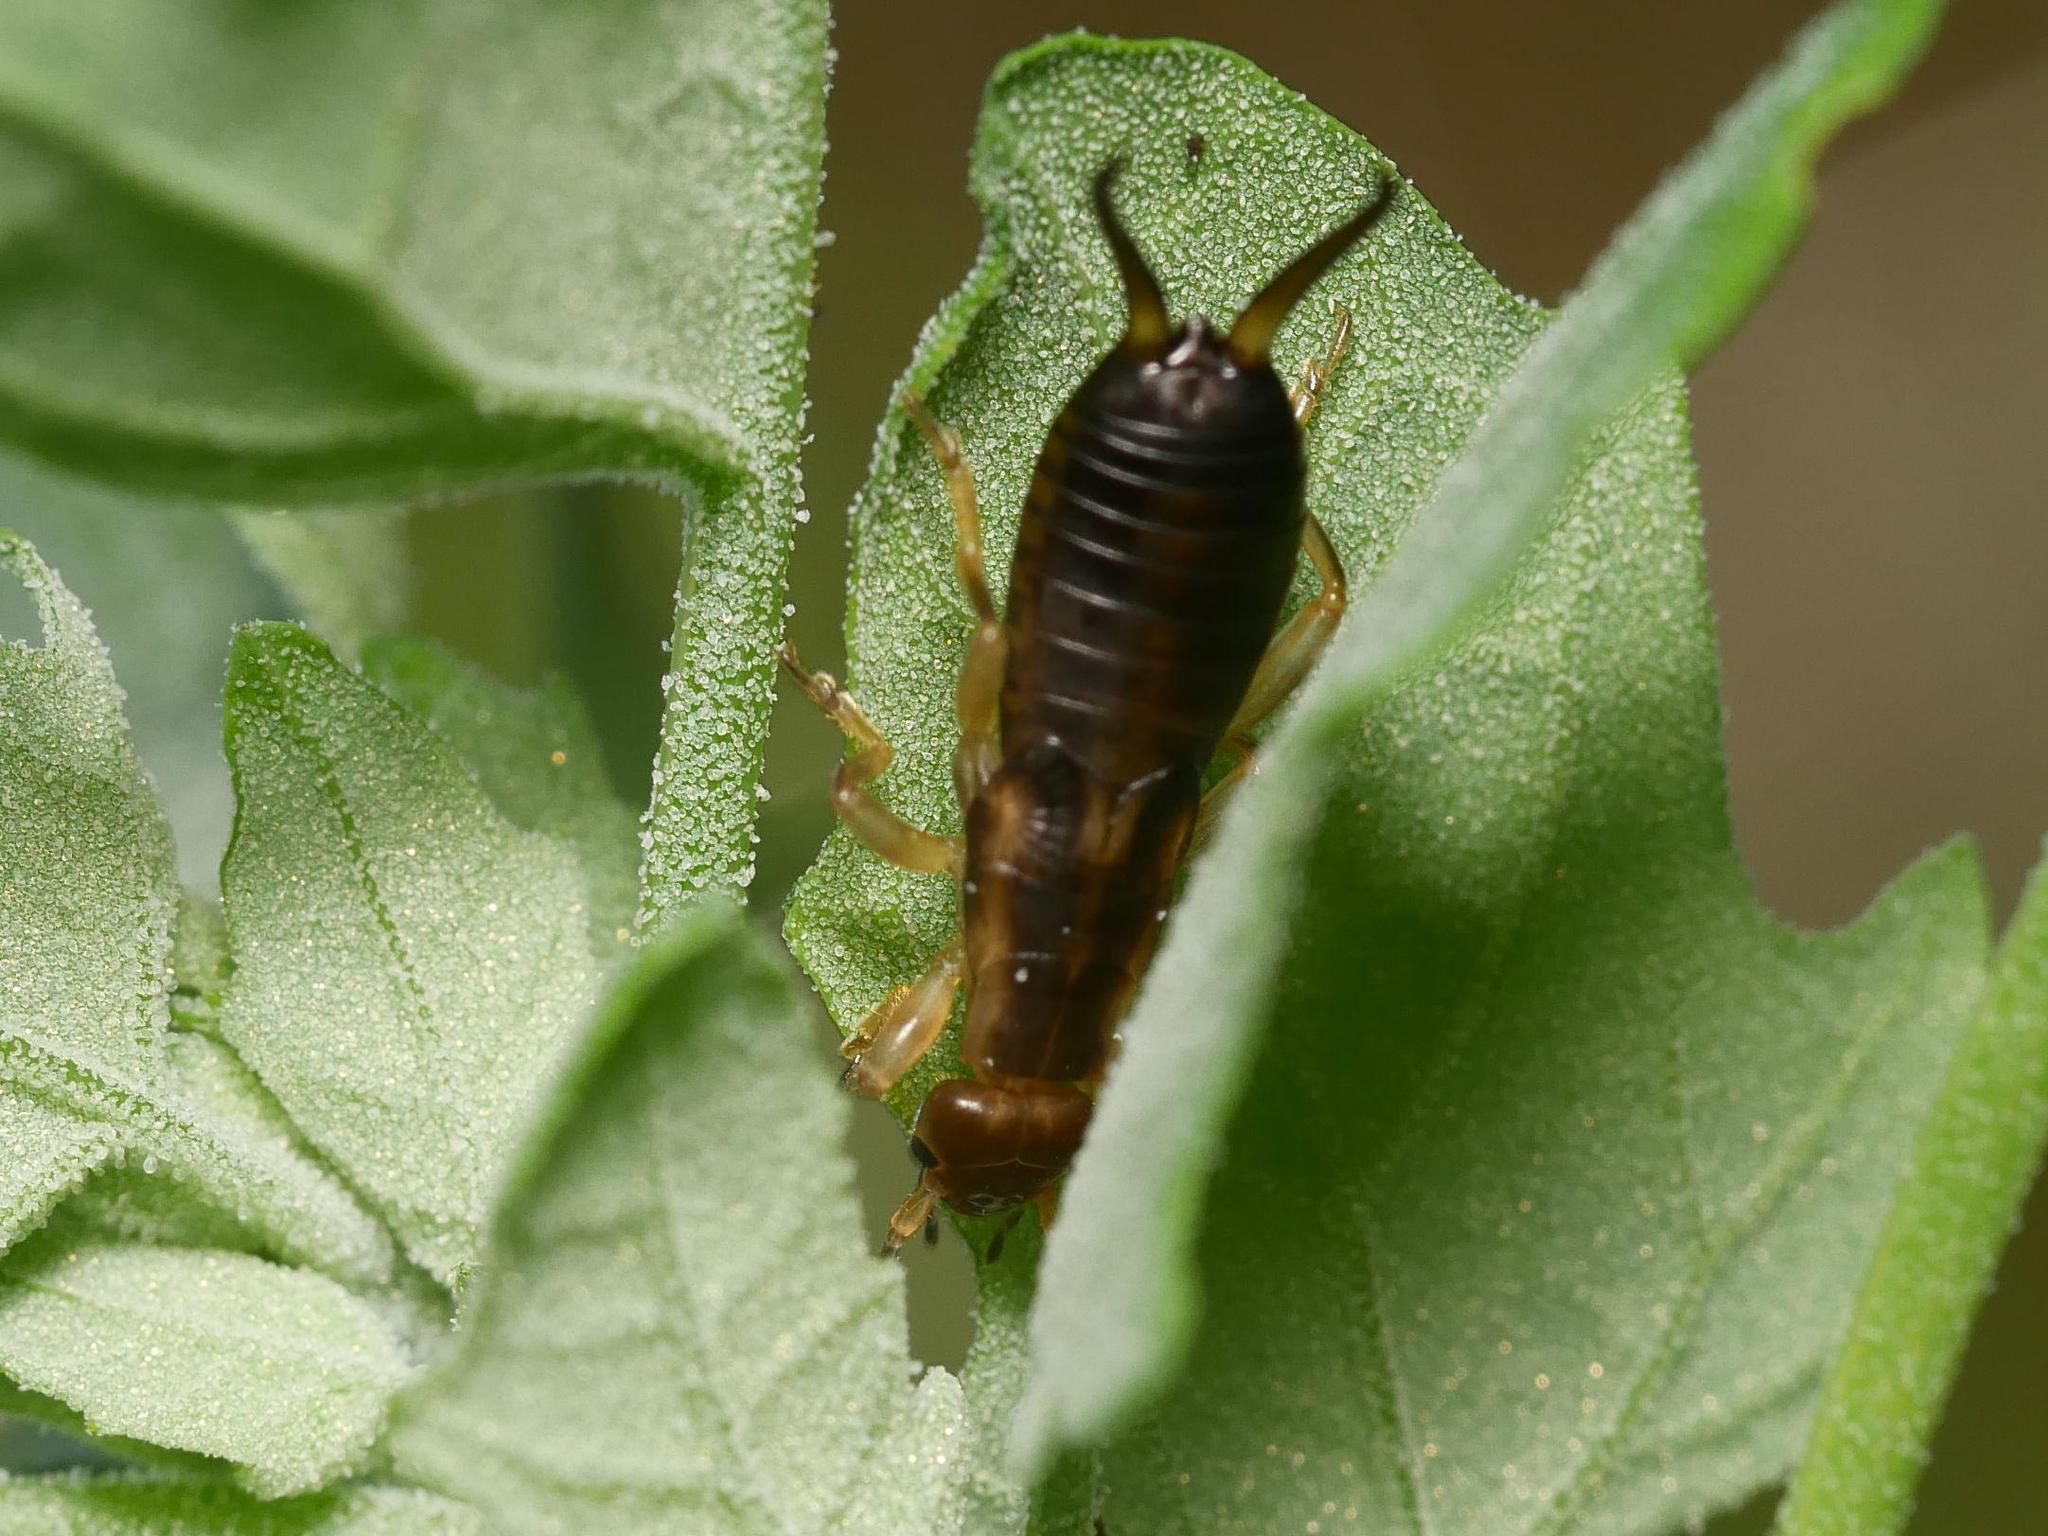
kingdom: Animalia
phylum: Arthropoda
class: Insecta
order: Dermaptera
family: Forficulidae
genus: Forficula
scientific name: Forficula
